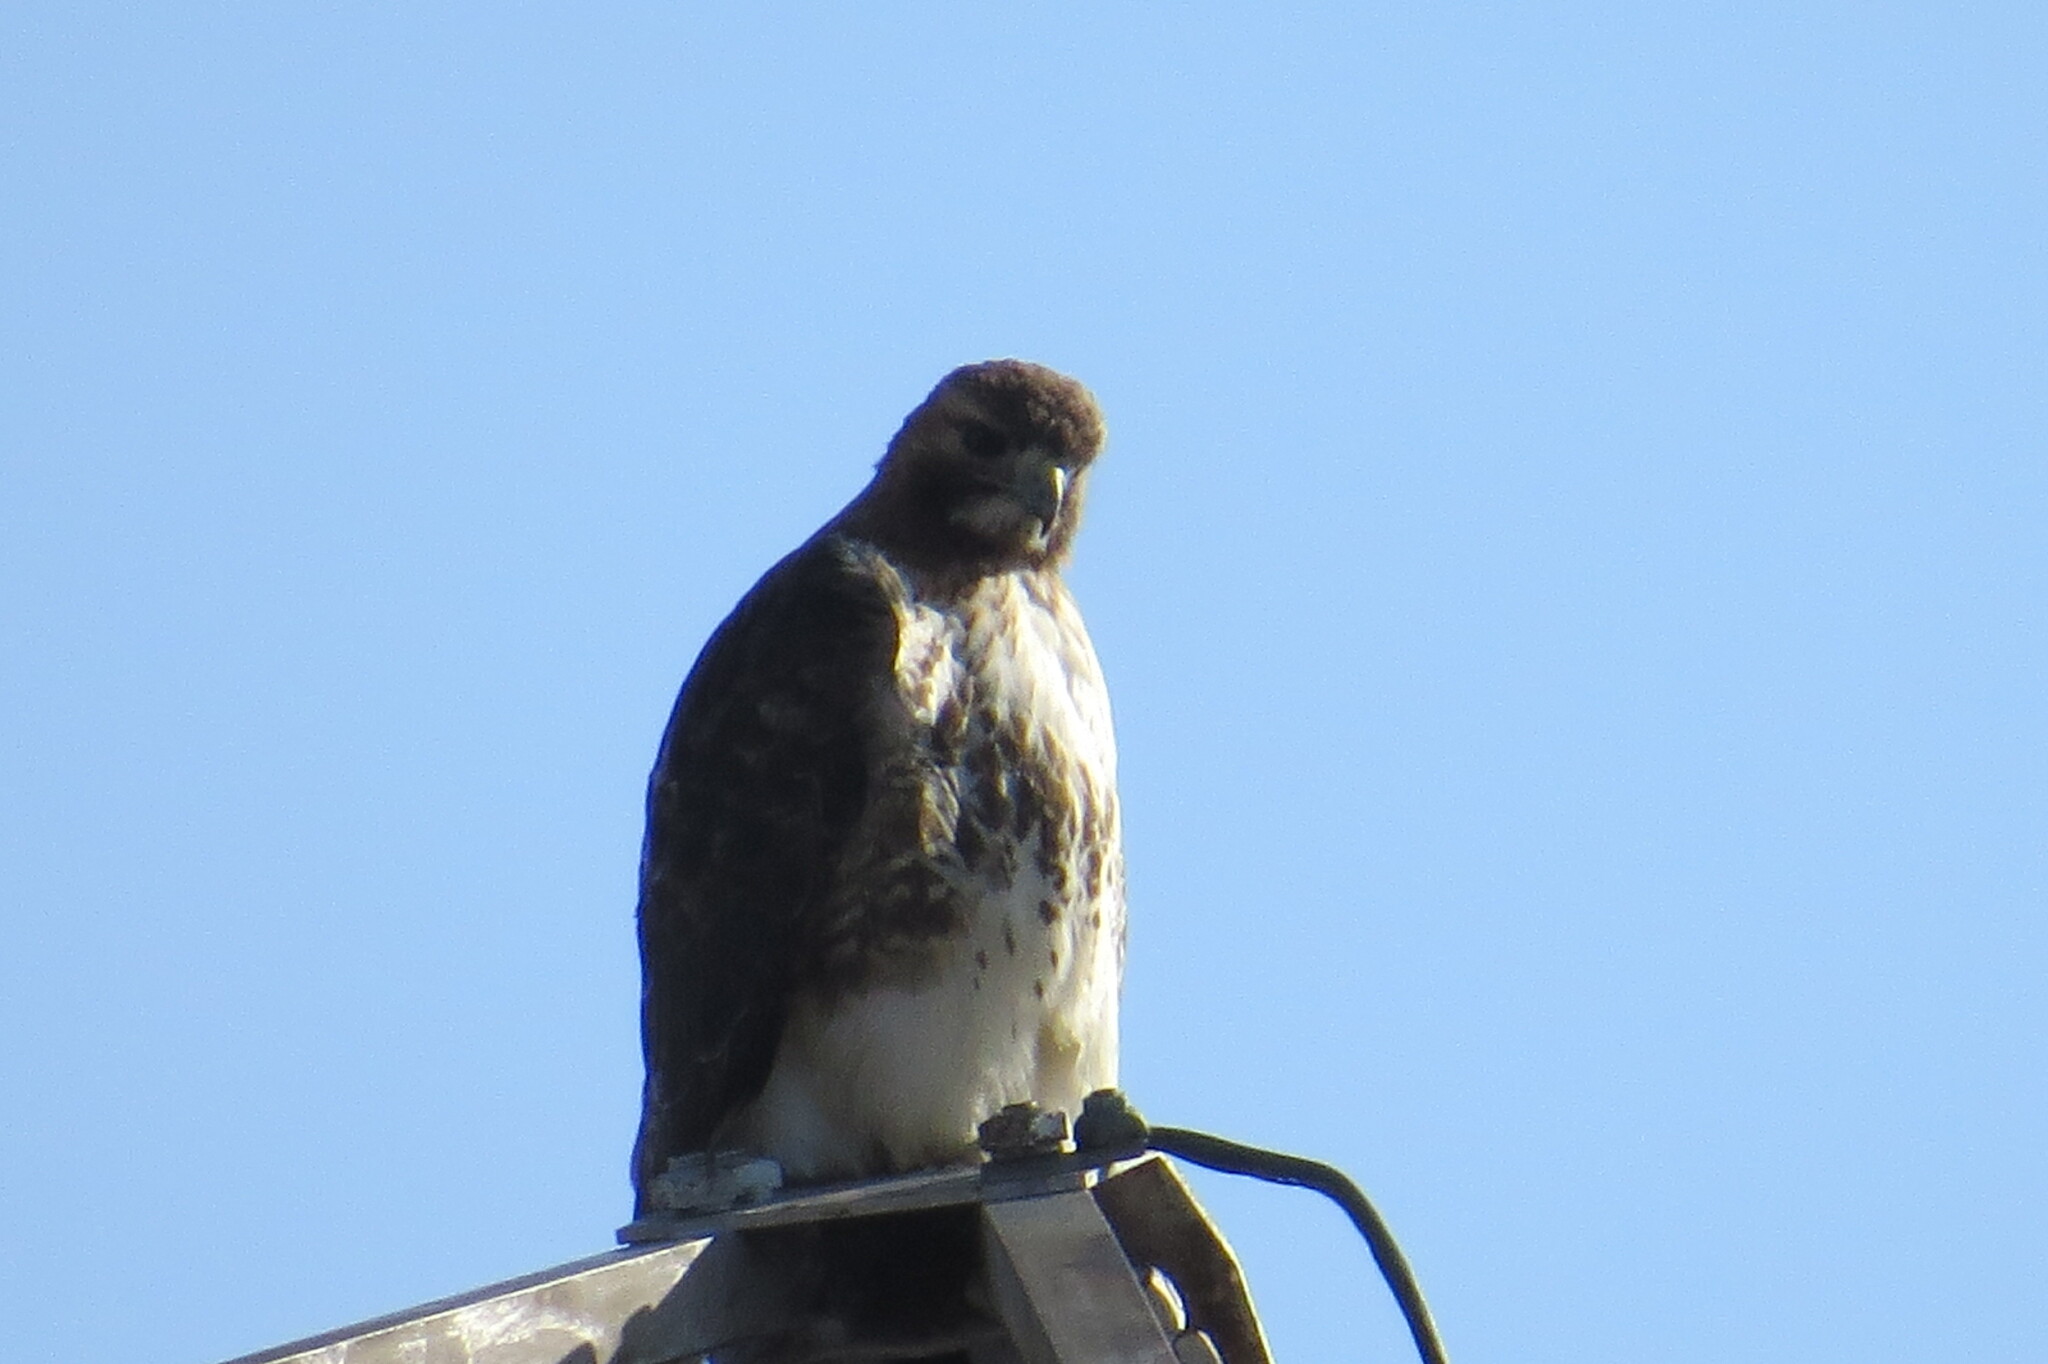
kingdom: Animalia
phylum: Chordata
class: Aves
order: Accipitriformes
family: Accipitridae
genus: Buteo
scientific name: Buteo jamaicensis
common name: Red-tailed hawk
